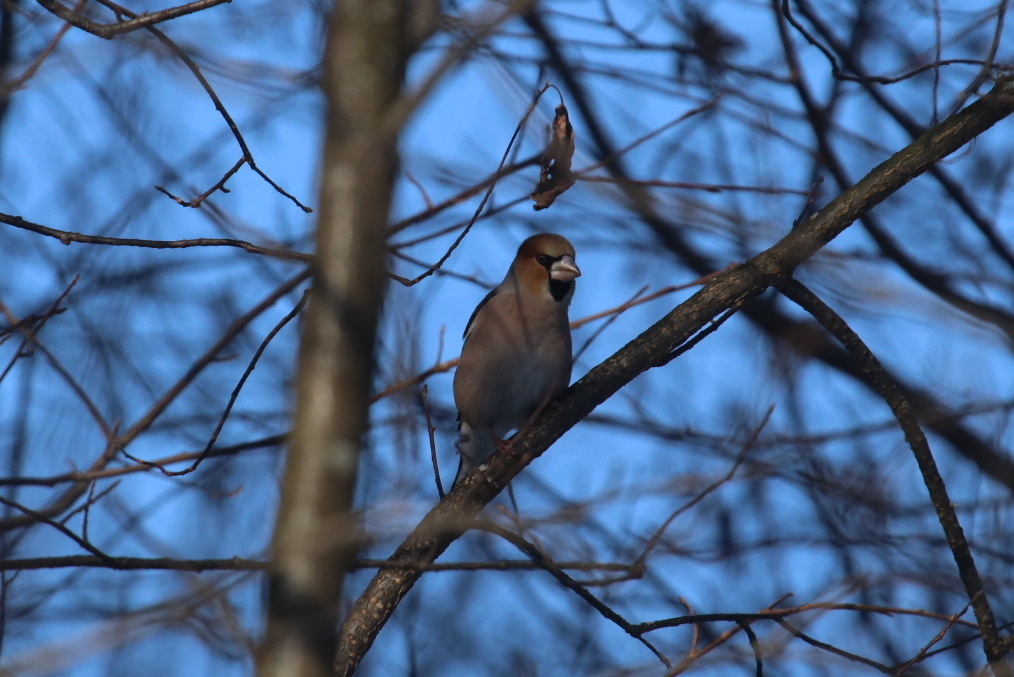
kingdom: Animalia
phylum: Chordata
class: Aves
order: Passeriformes
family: Fringillidae
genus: Coccothraustes
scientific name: Coccothraustes coccothraustes
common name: Hawfinch
